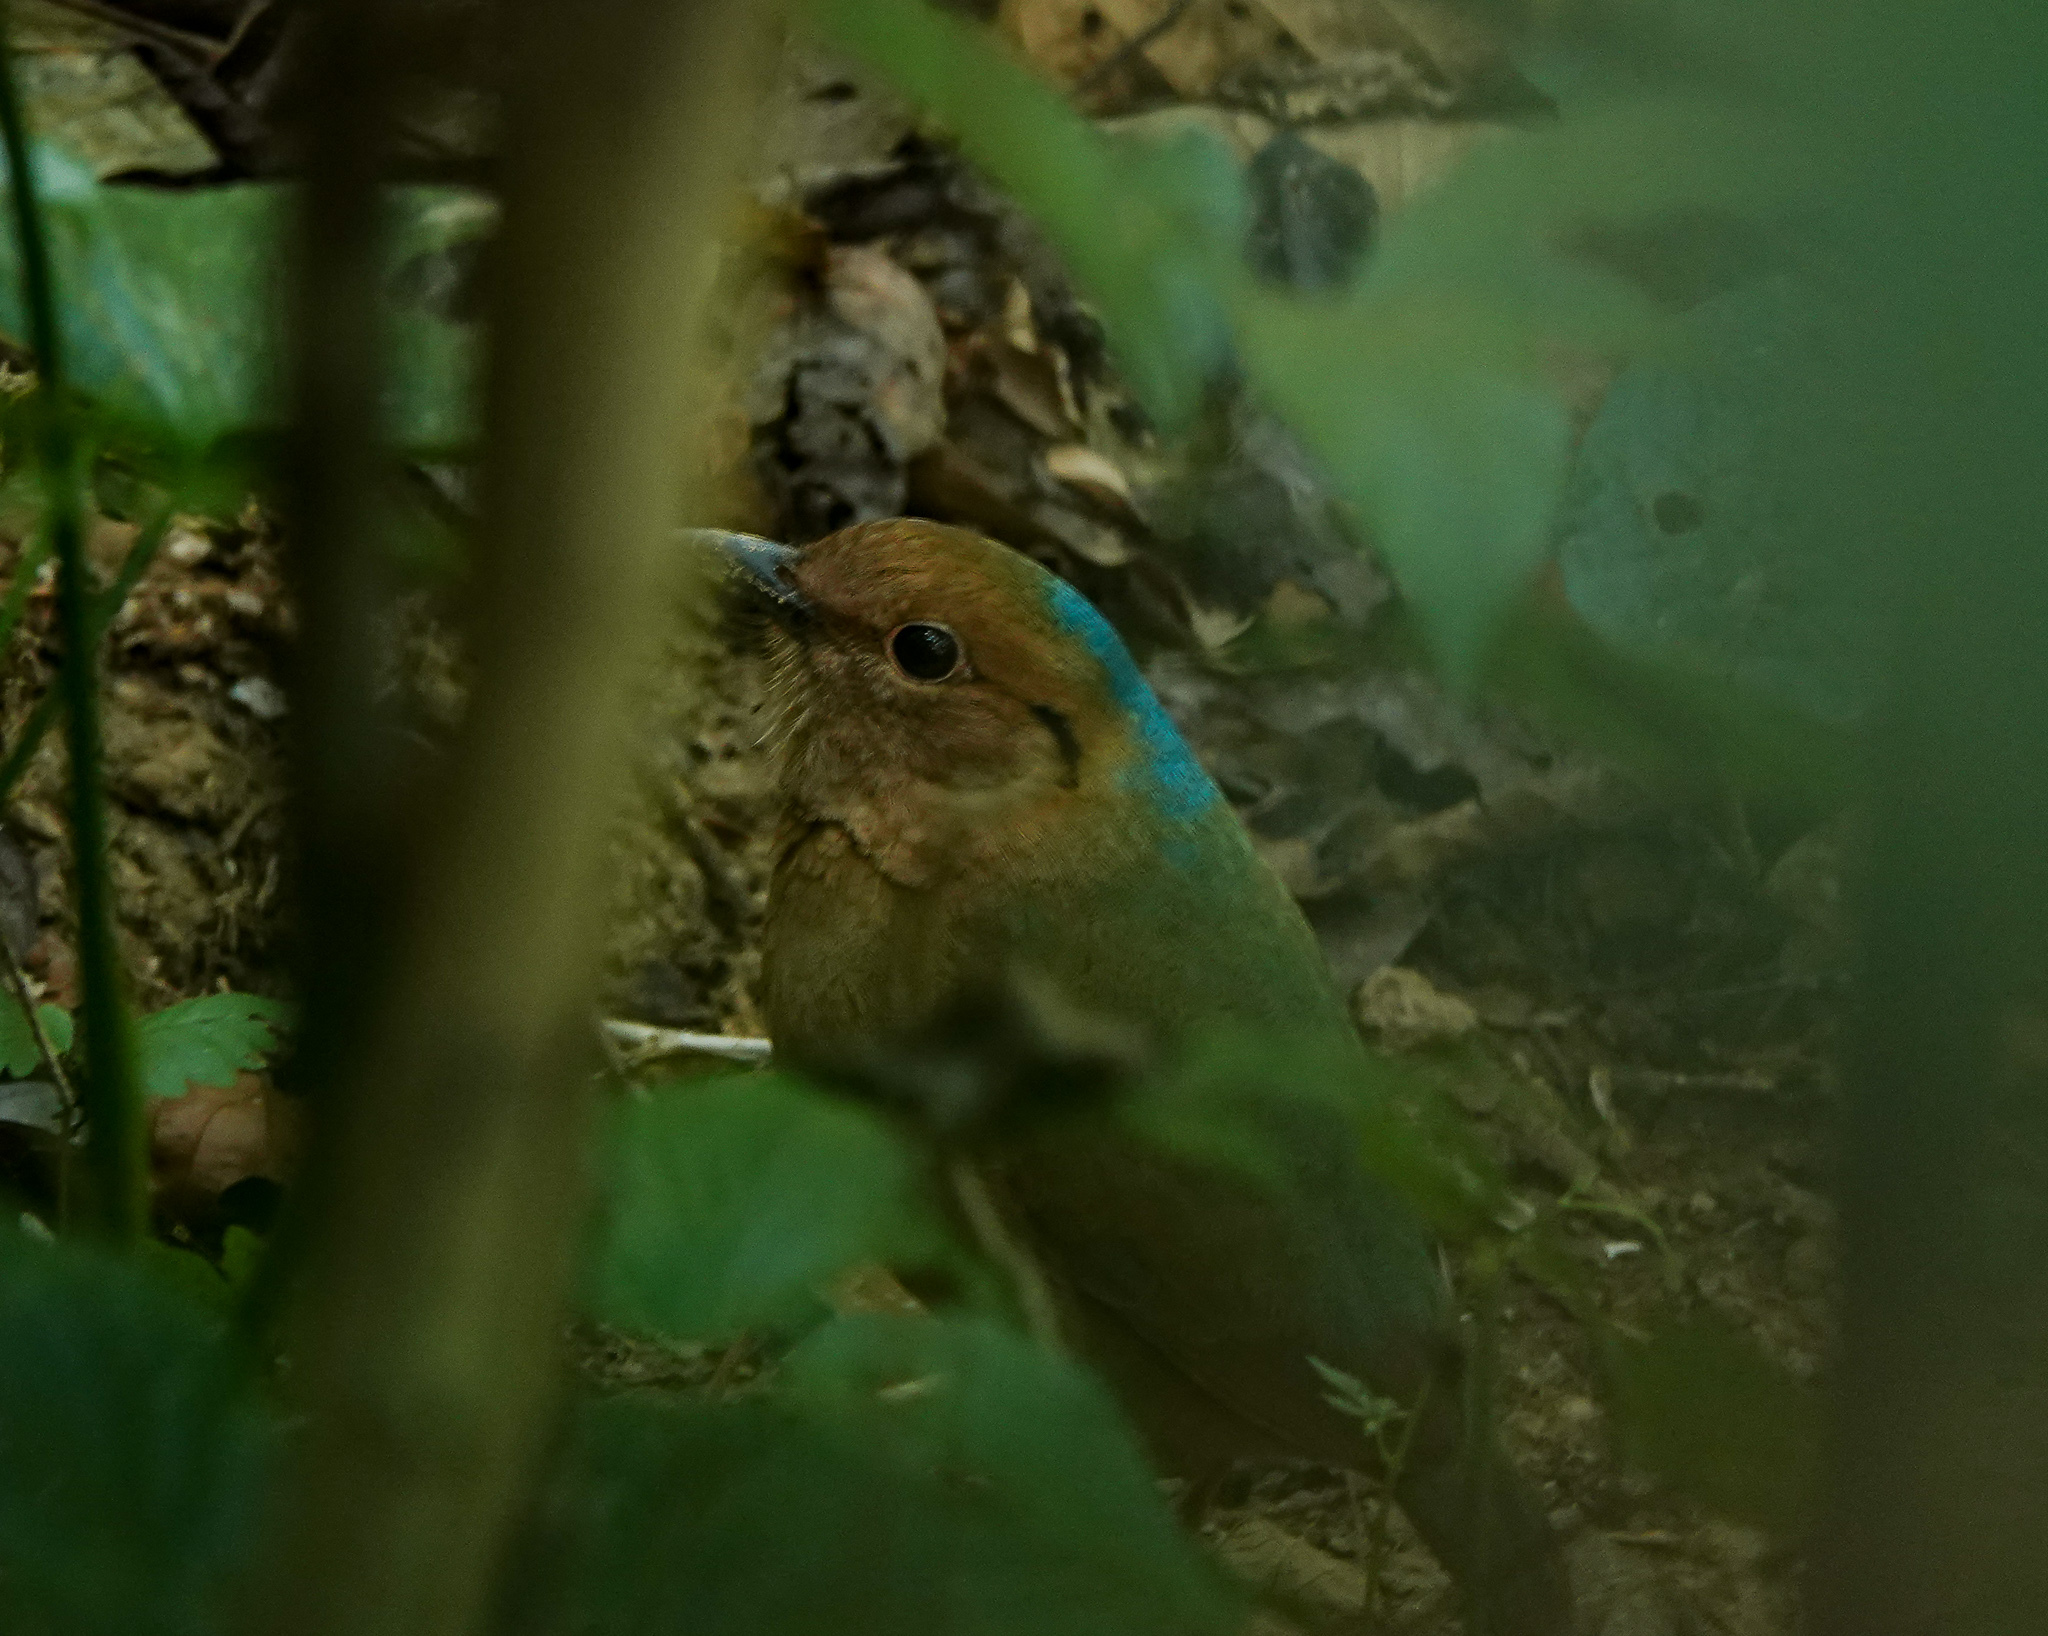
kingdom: Animalia
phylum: Chordata
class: Aves
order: Passeriformes
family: Pittidae
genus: Pitta
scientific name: Pitta nipalensis
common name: Blue-naped pitta
